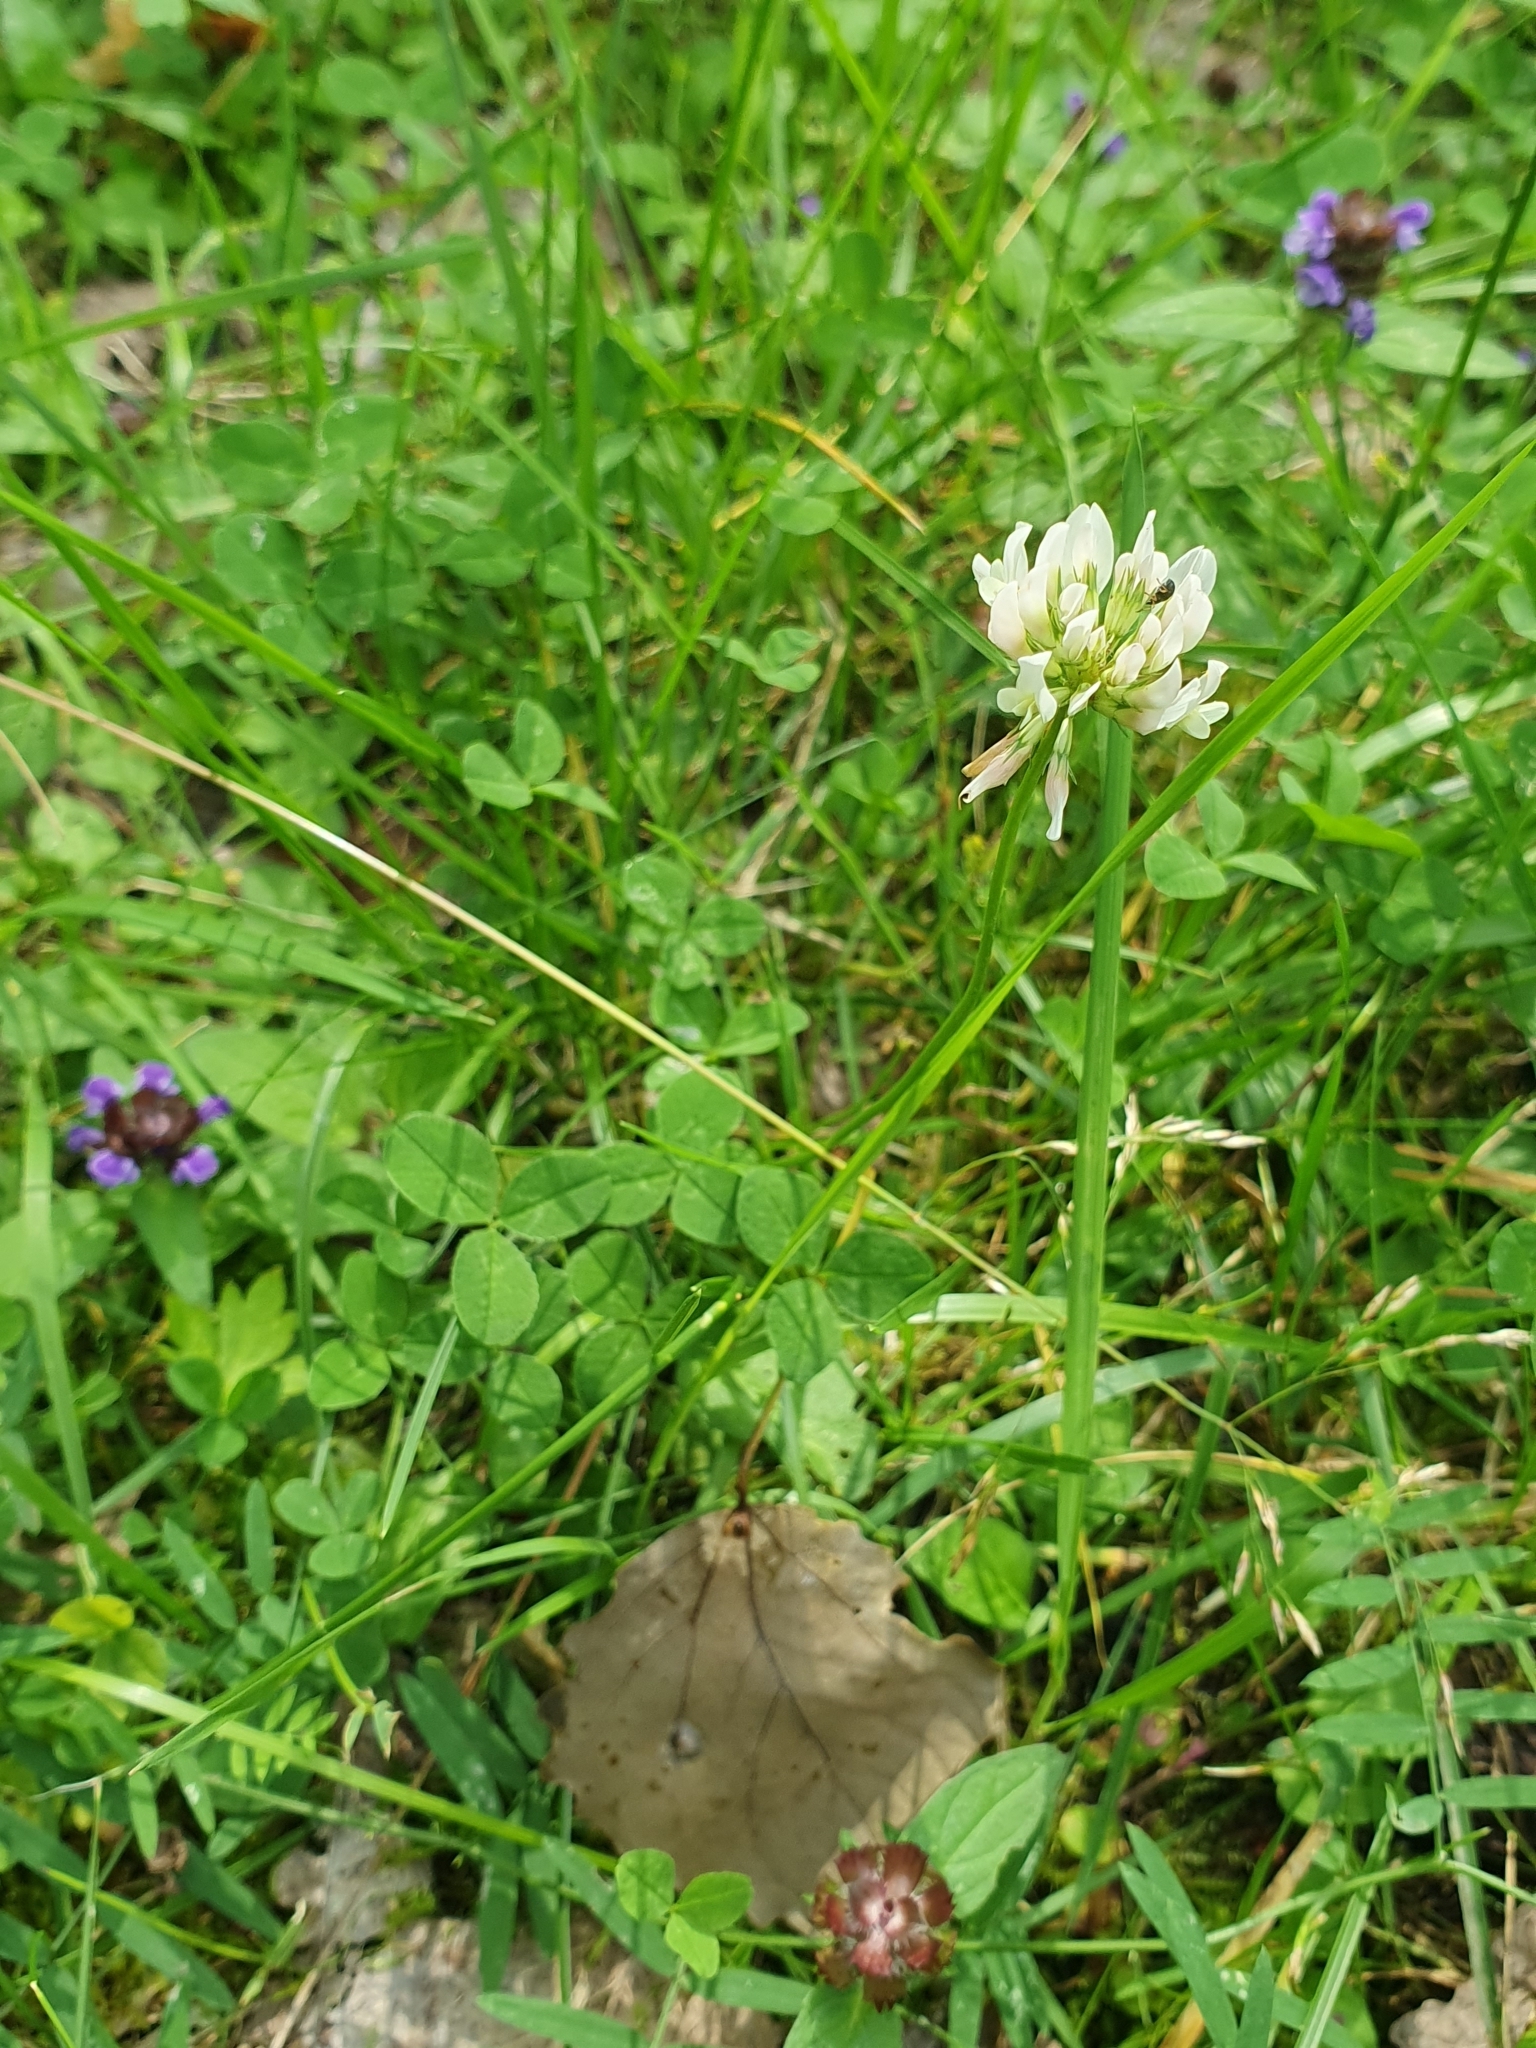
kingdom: Plantae
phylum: Tracheophyta
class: Magnoliopsida
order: Fabales
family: Fabaceae
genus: Trifolium
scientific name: Trifolium repens
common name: White clover
